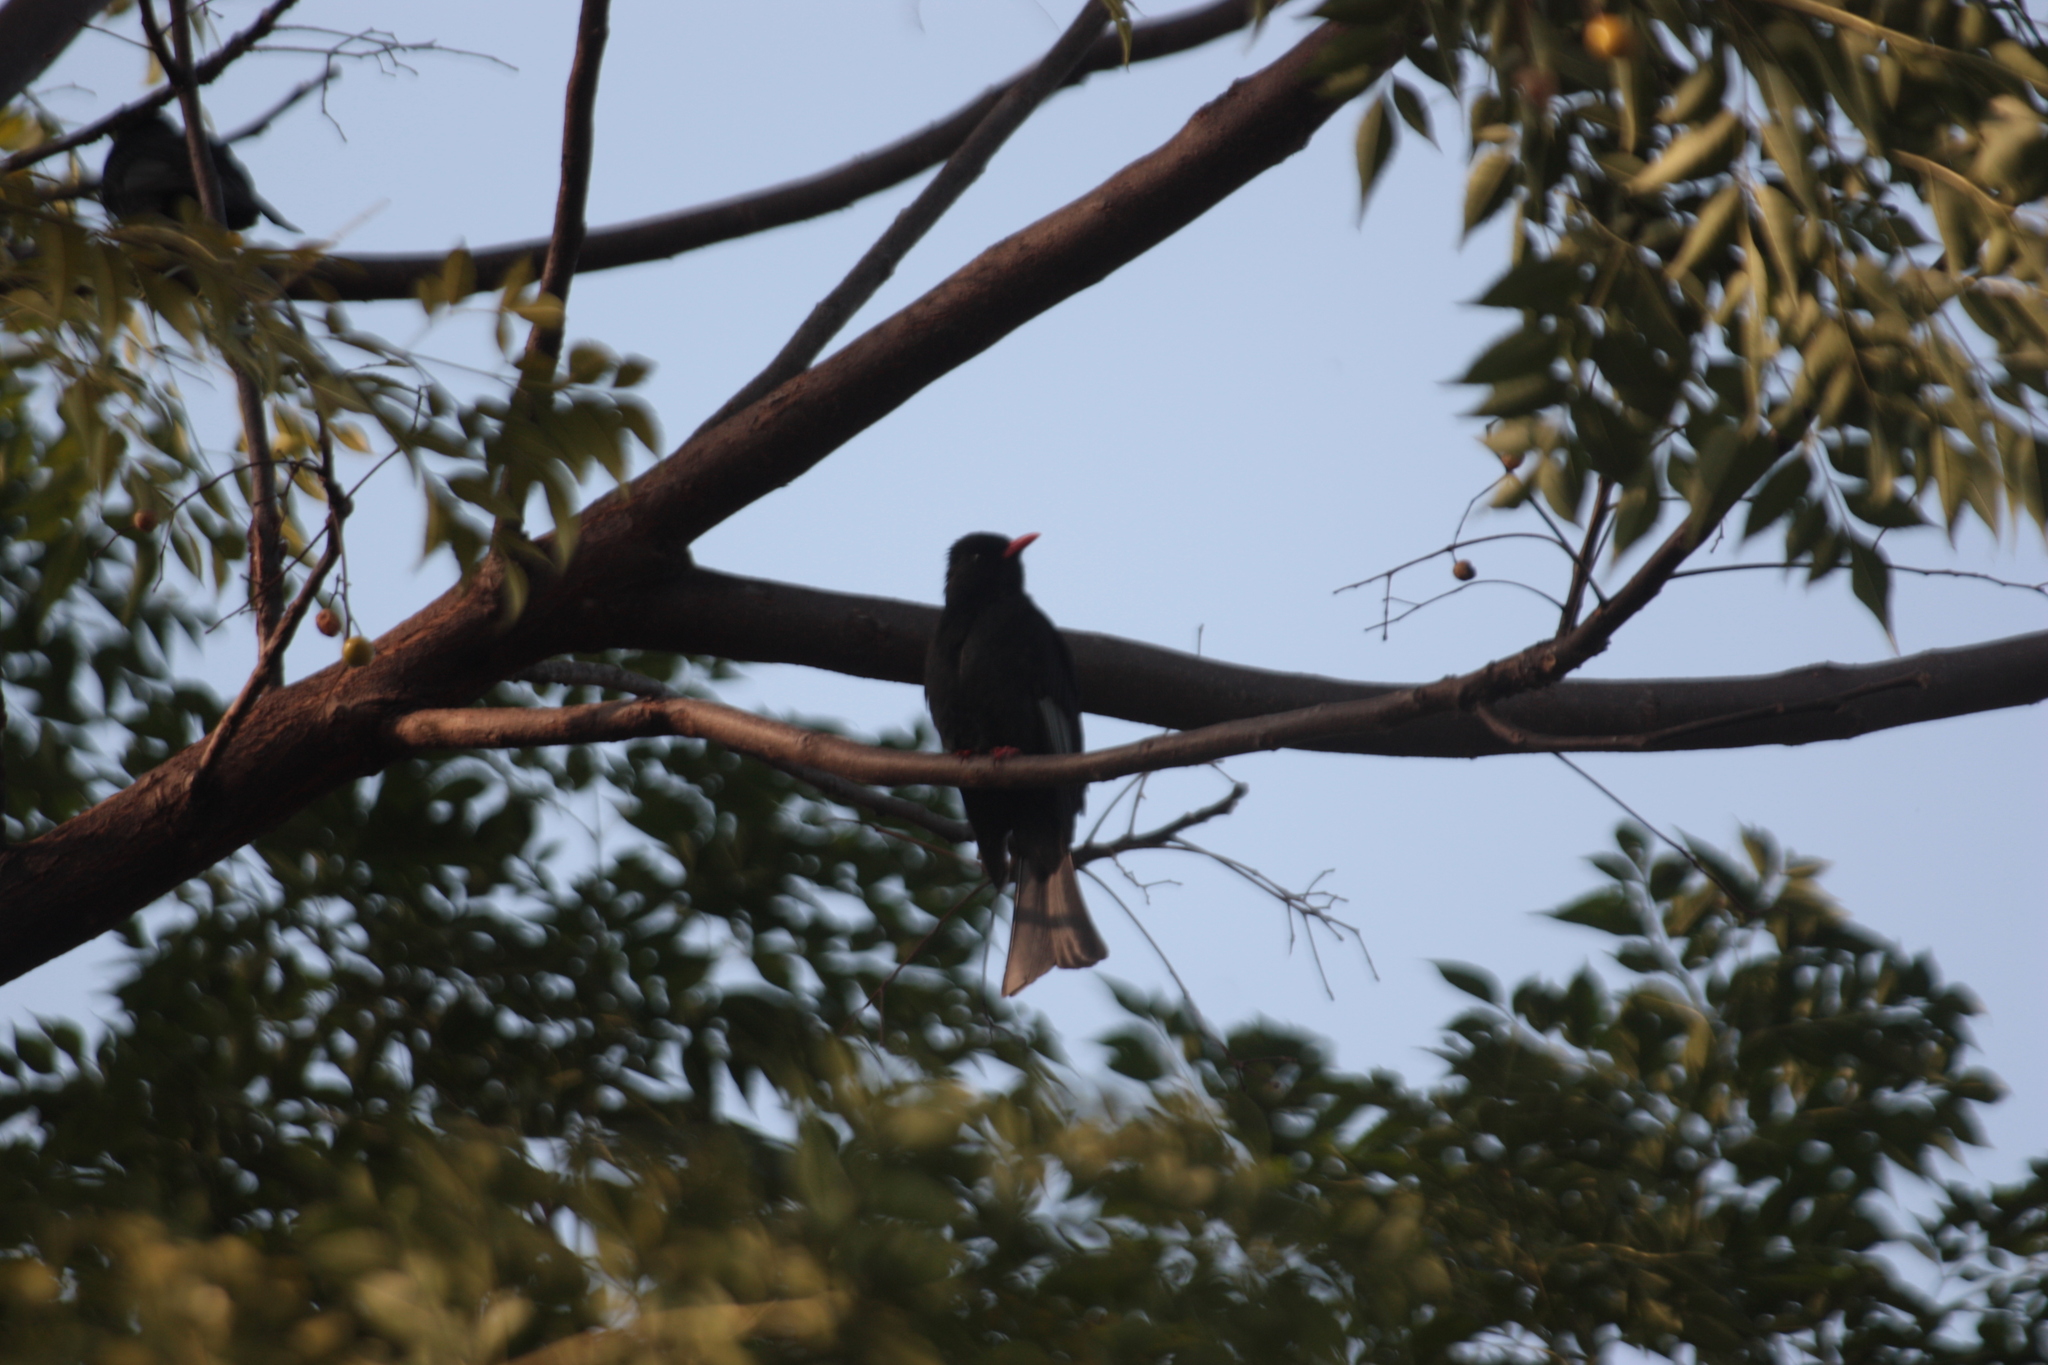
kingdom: Animalia
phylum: Chordata
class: Aves
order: Passeriformes
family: Pycnonotidae
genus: Hypsipetes
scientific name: Hypsipetes leucocephalus
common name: Black bulbul
